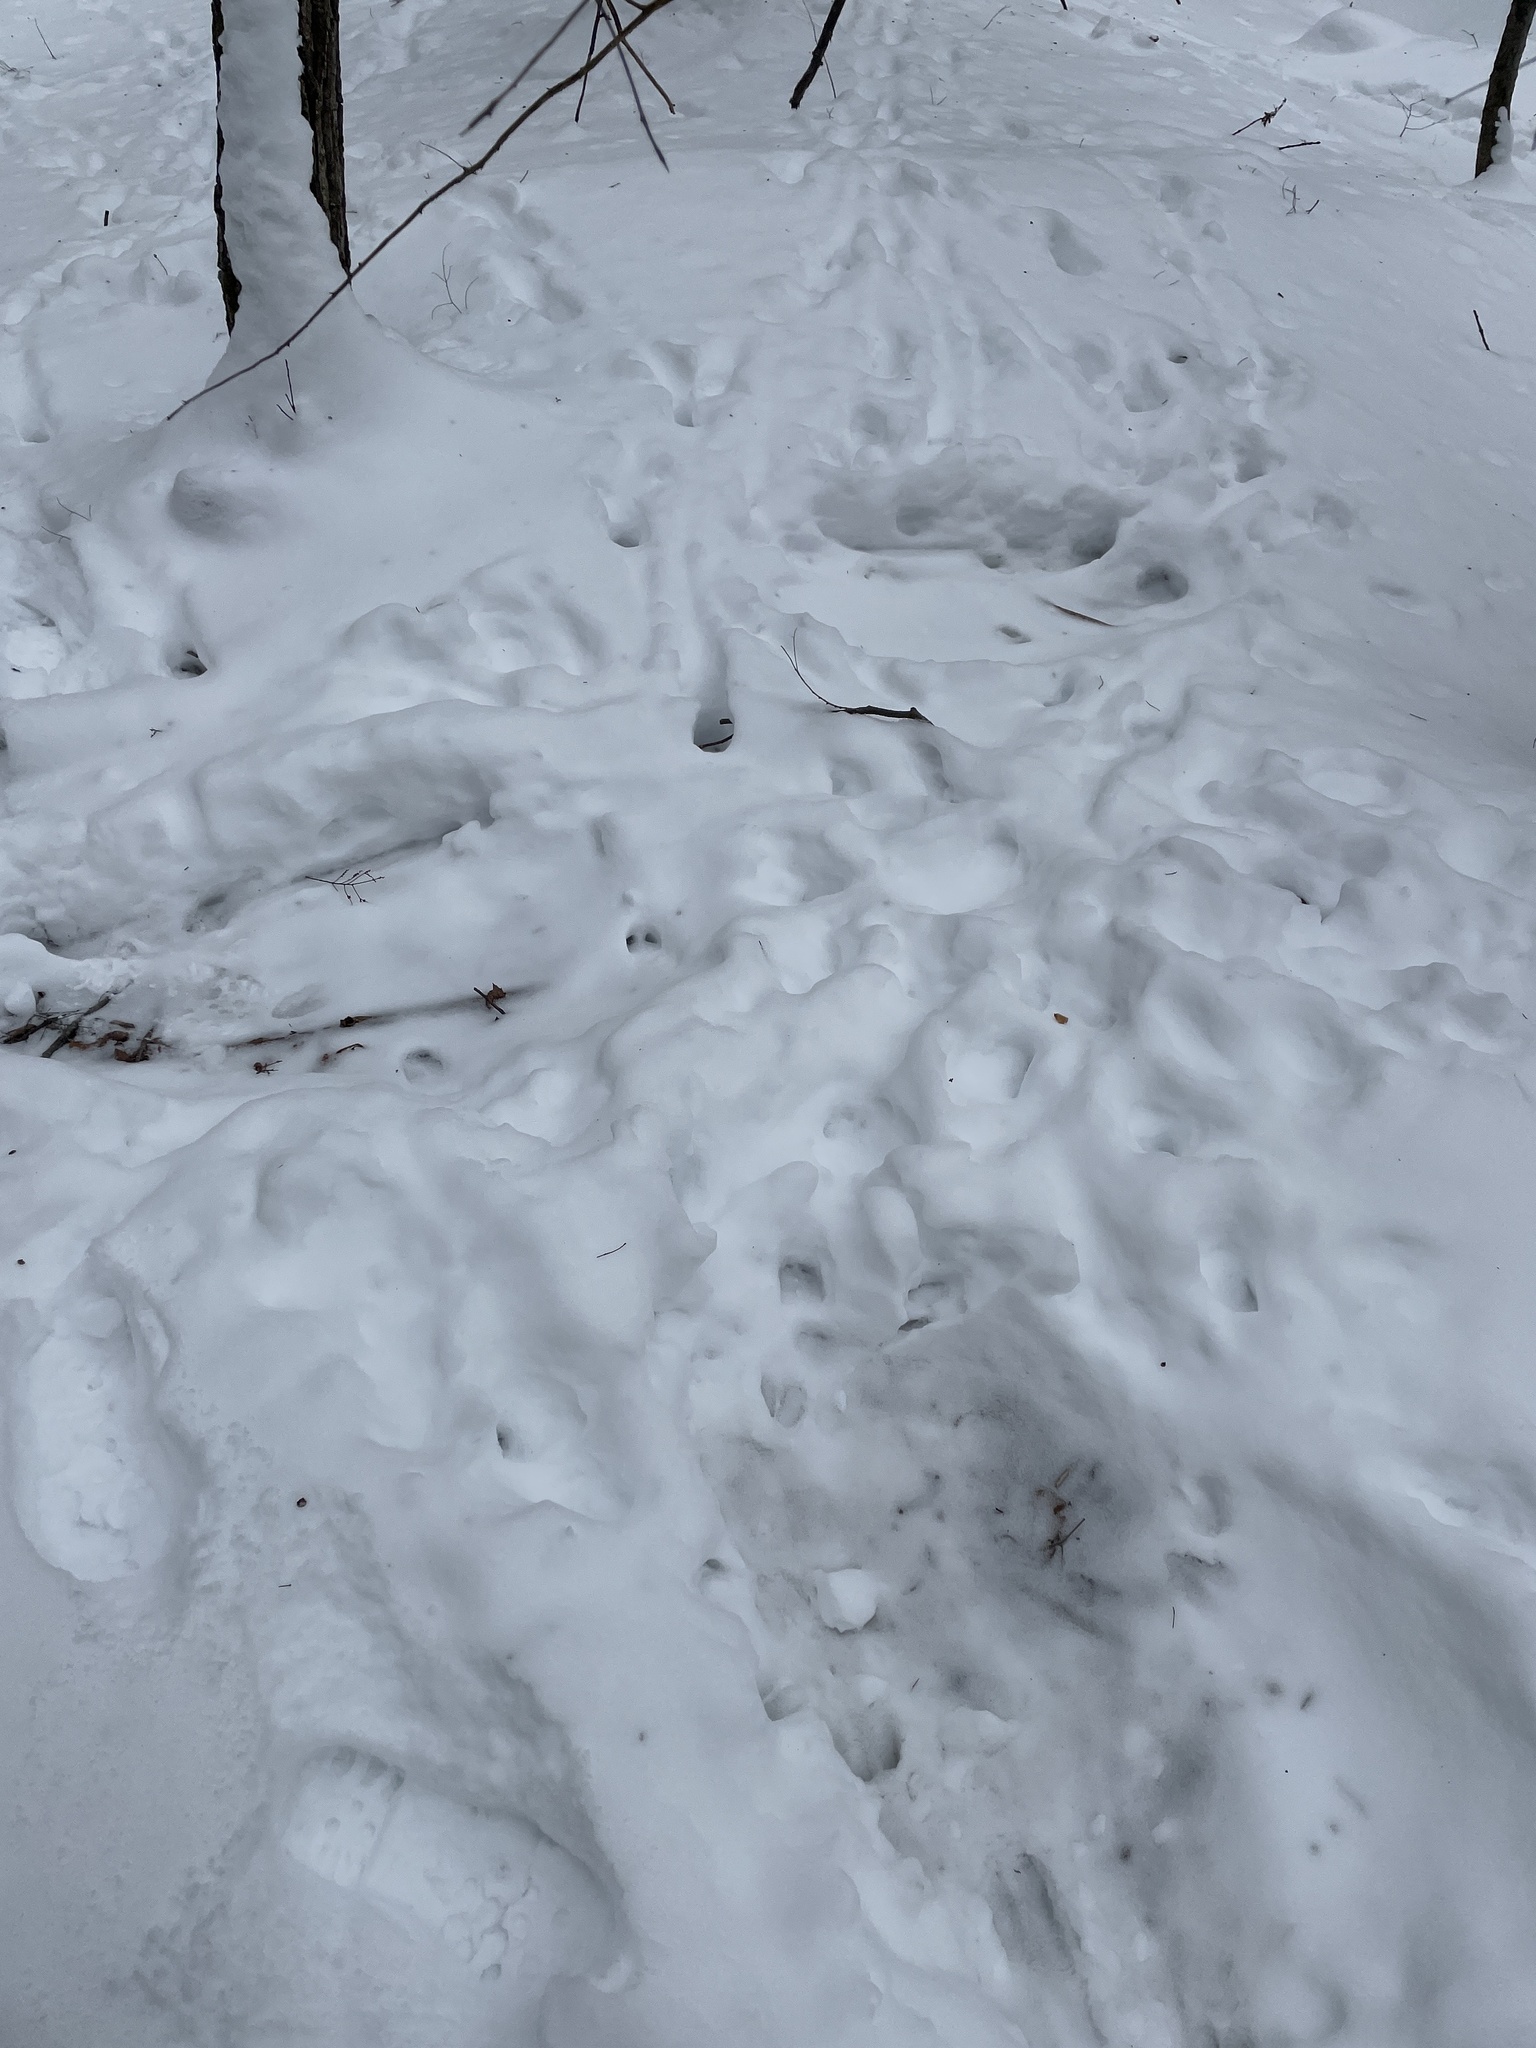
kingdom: Animalia
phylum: Chordata
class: Mammalia
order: Artiodactyla
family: Cervidae
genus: Odocoileus
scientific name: Odocoileus virginianus
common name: White-tailed deer
